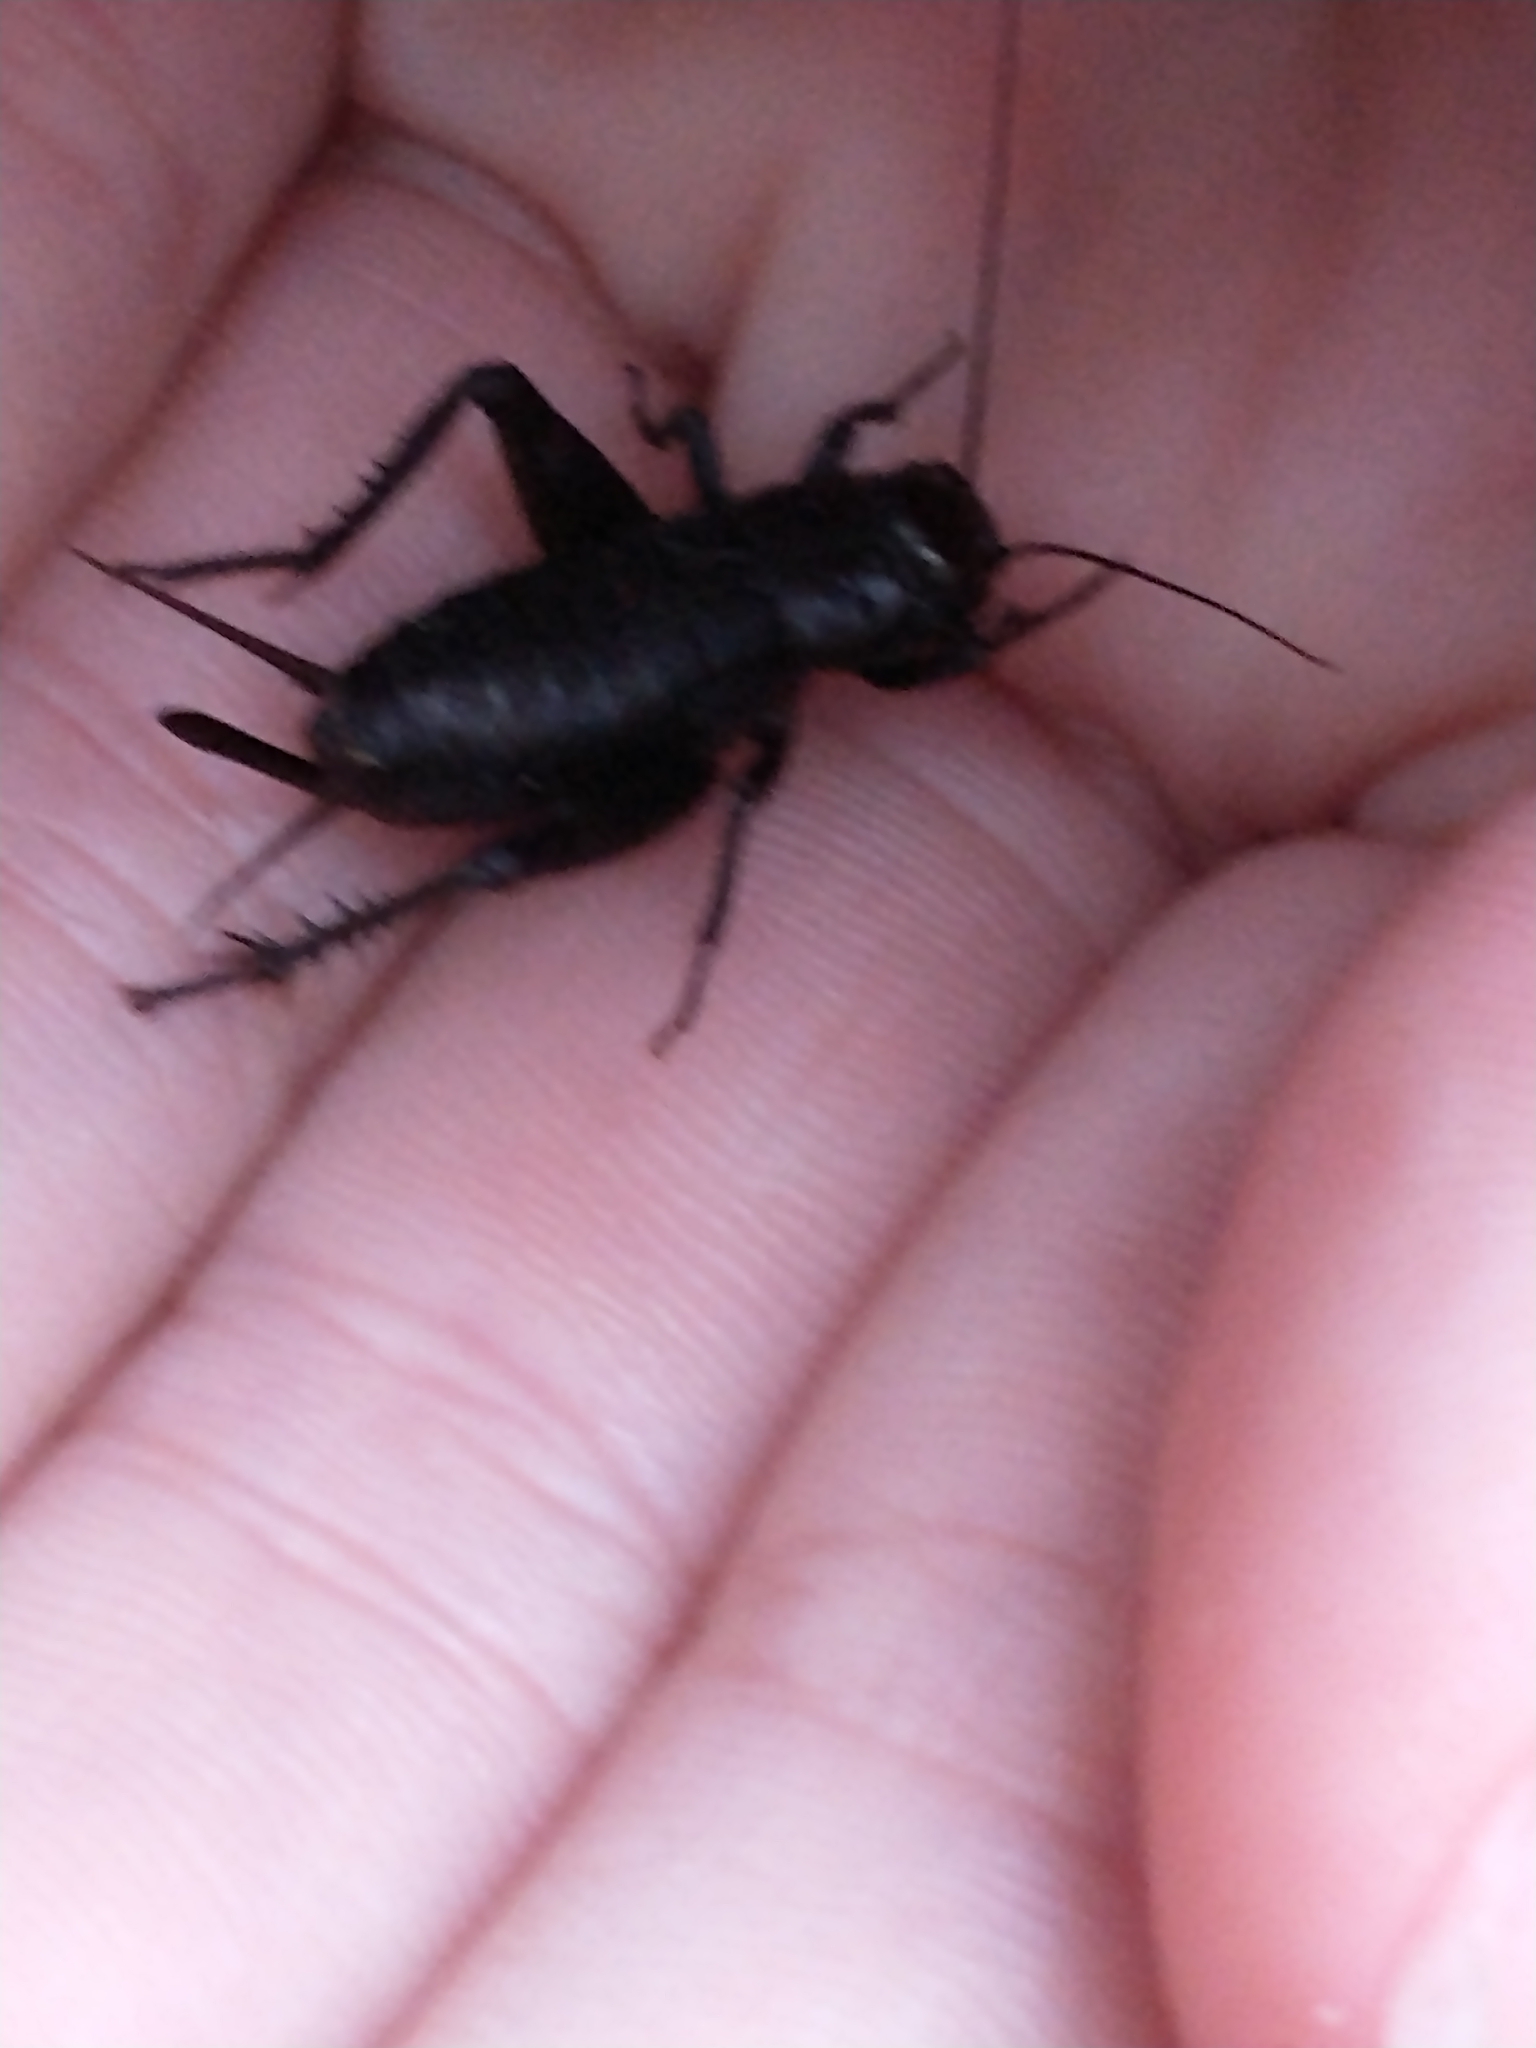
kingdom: Animalia
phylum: Arthropoda
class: Insecta
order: Orthoptera
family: Gryllidae
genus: Gryllus
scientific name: Gryllus pennsylvanicus
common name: Fall field cricket
